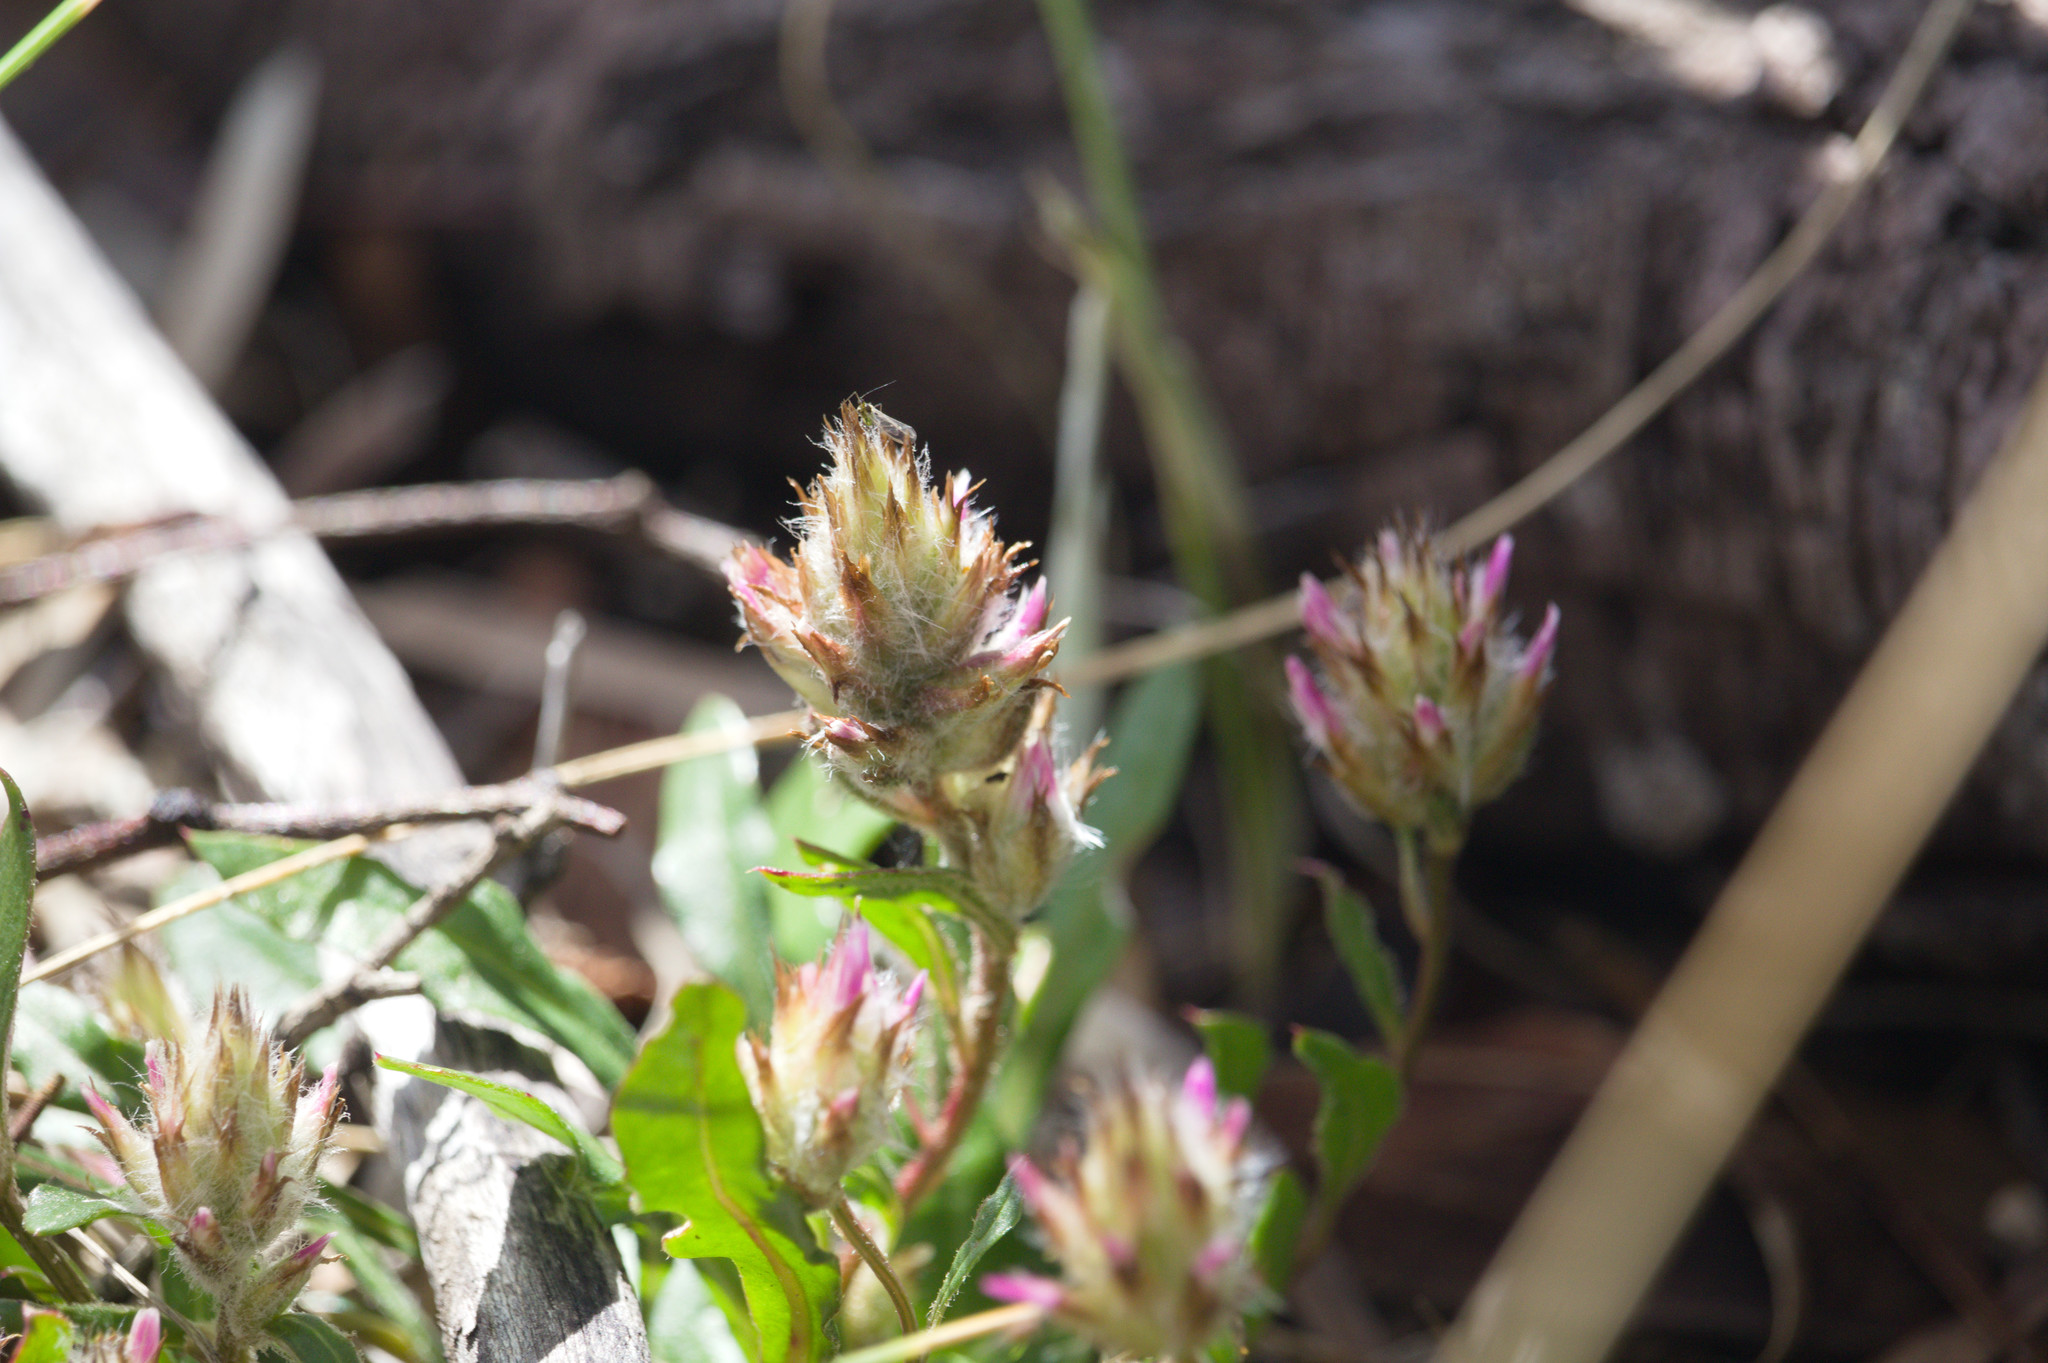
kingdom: Plantae
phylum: Tracheophyta
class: Magnoliopsida
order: Caryophyllales
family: Amaranthaceae
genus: Ptilotus
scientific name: Ptilotus manglesii
